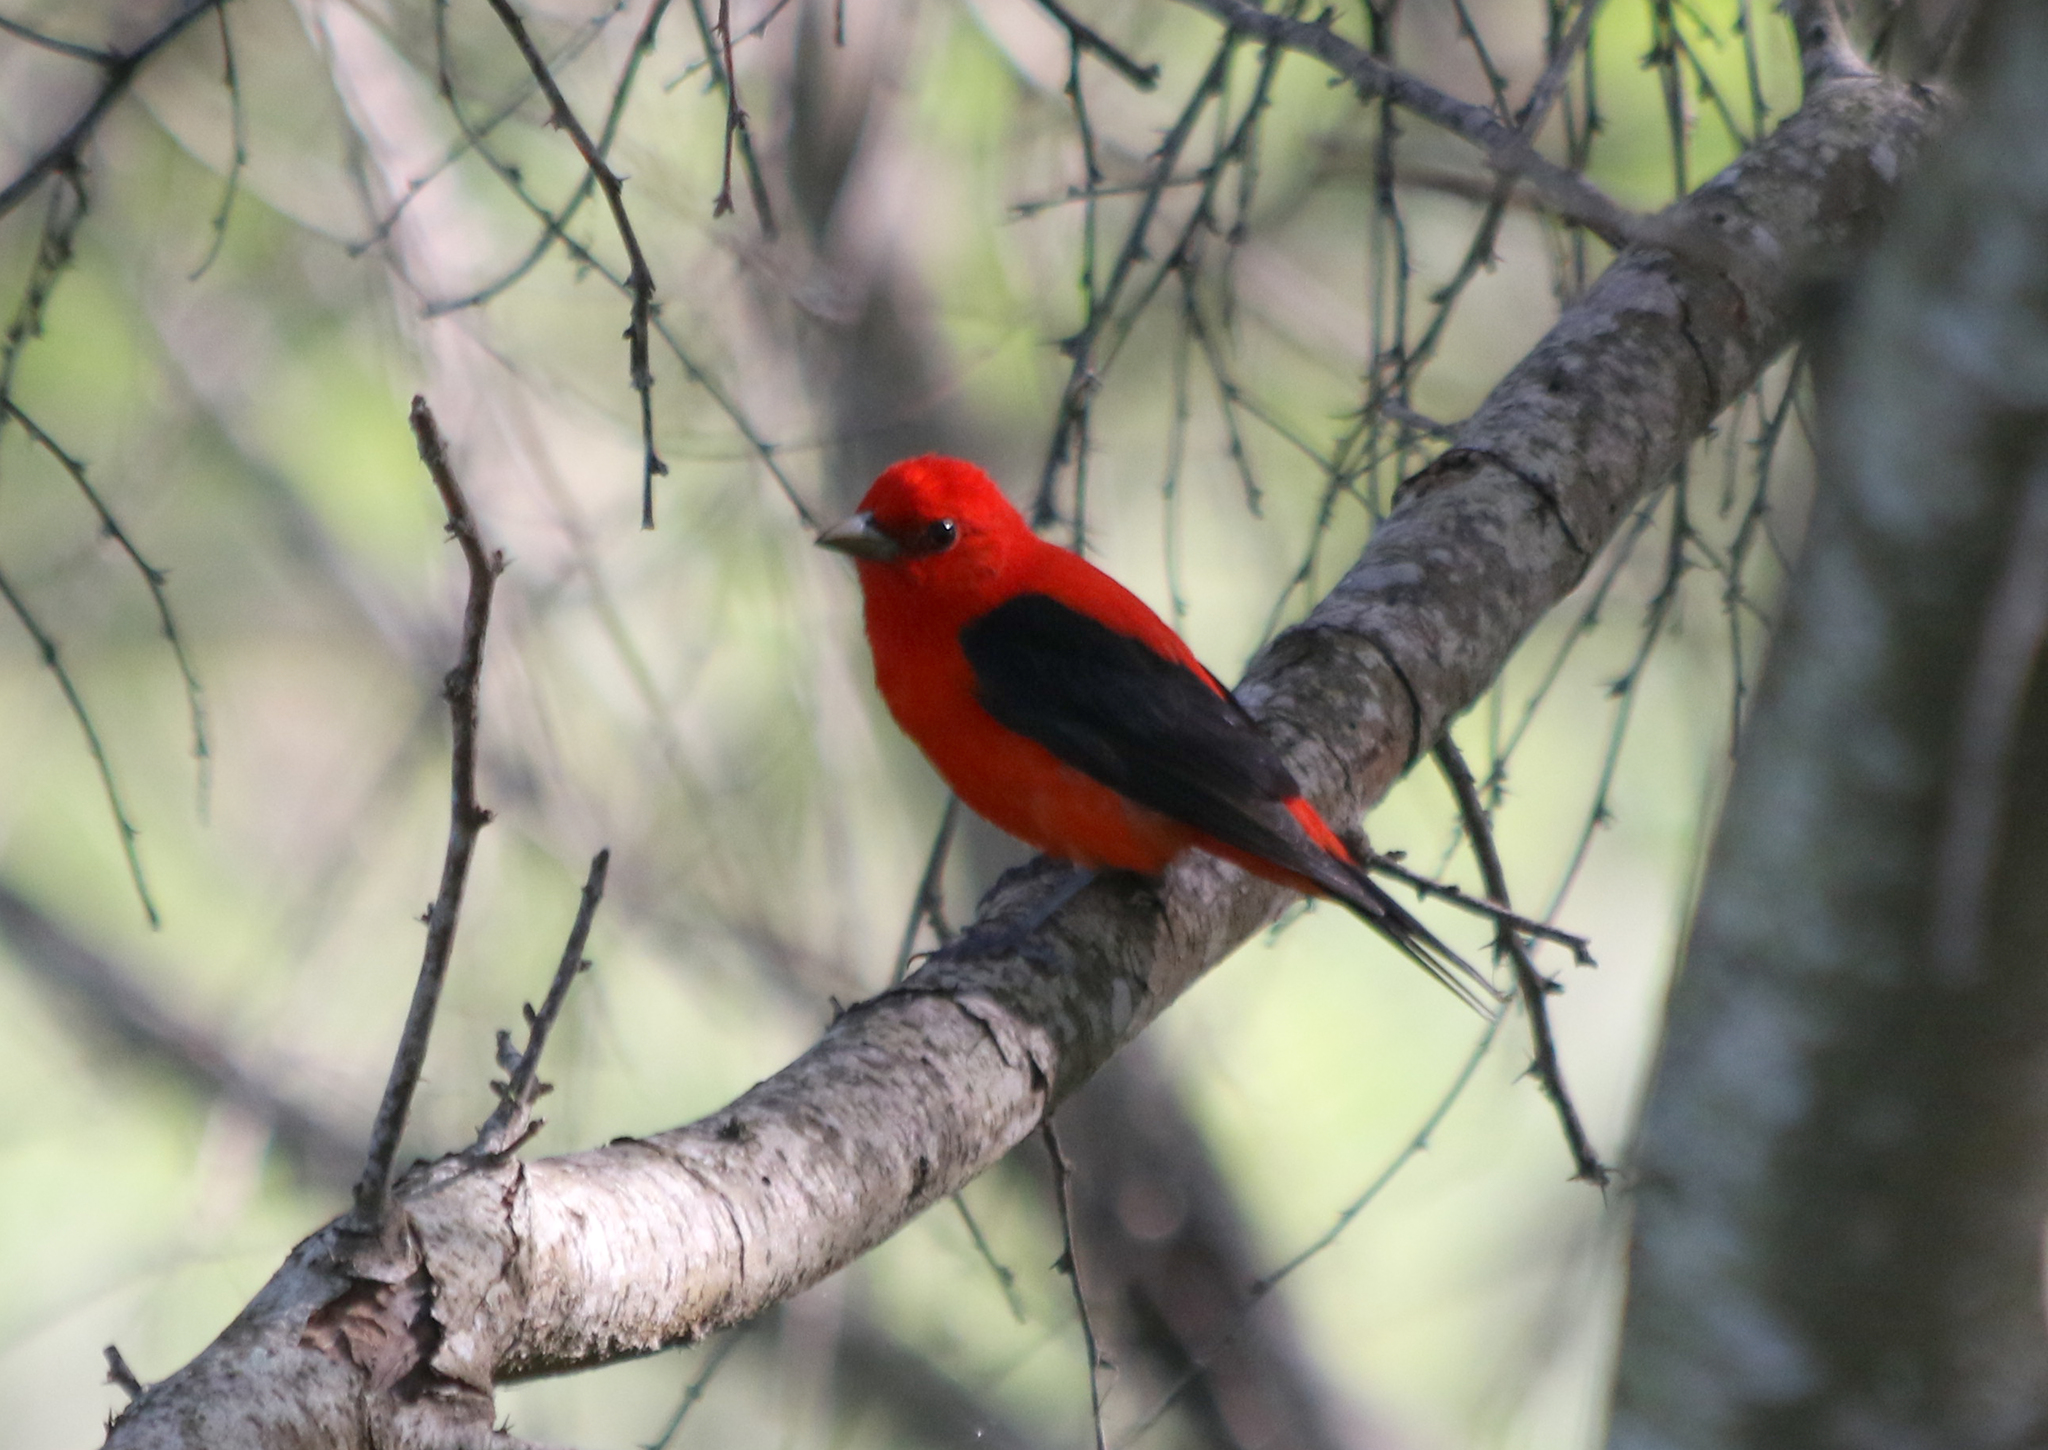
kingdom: Animalia
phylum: Chordata
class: Aves
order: Passeriformes
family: Cardinalidae
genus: Piranga
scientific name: Piranga olivacea
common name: Scarlet tanager
